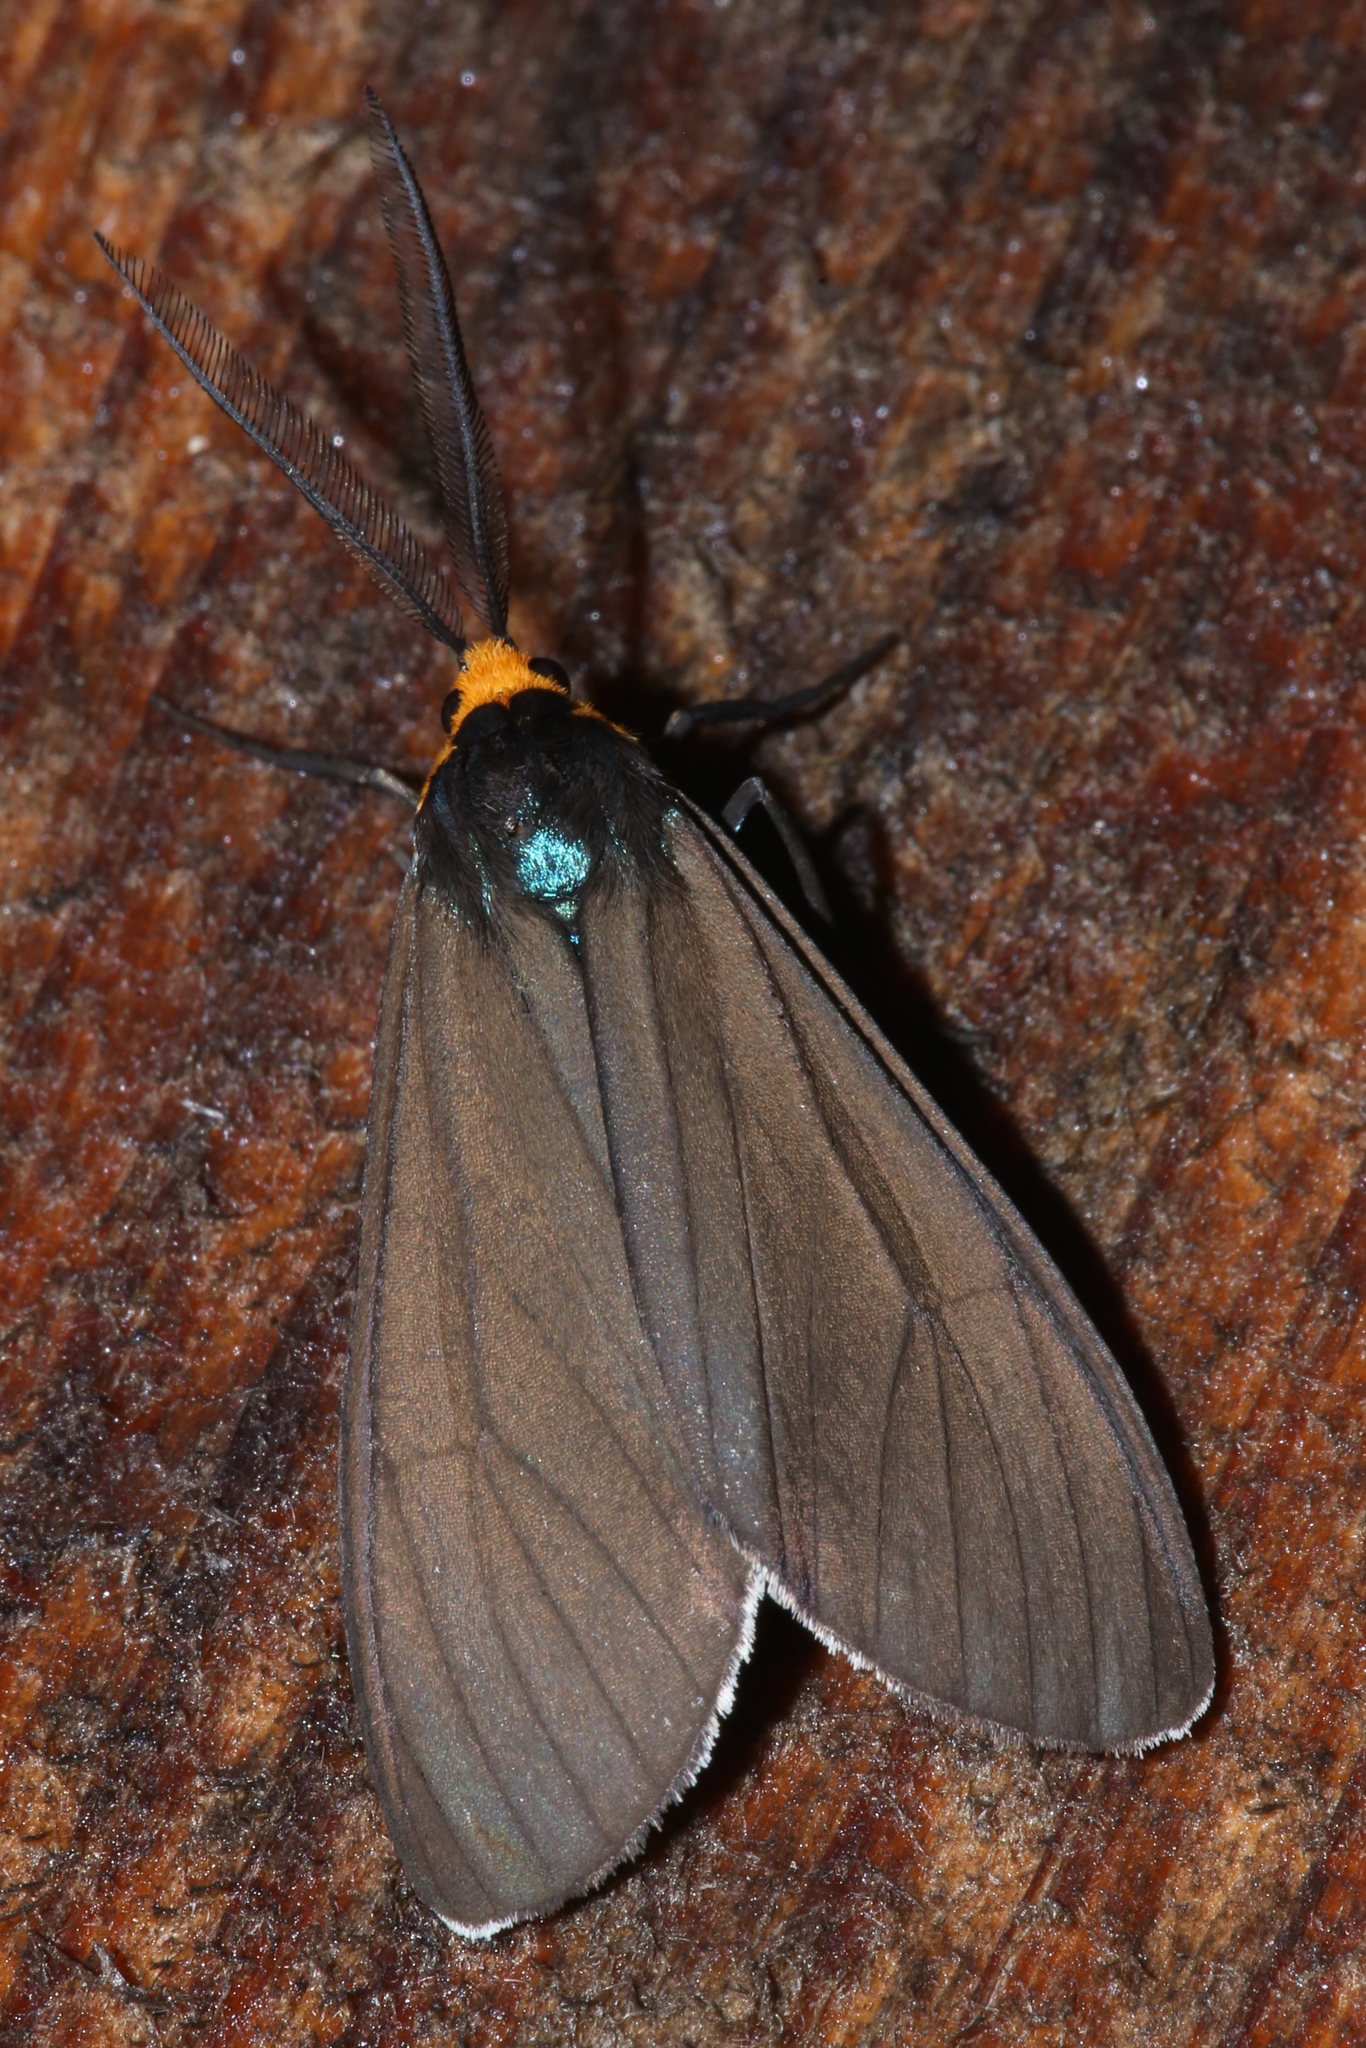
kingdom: Animalia
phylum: Arthropoda
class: Insecta
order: Lepidoptera
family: Erebidae
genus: Ctenucha
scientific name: Ctenucha virginica
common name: Virginia ctenucha moth
